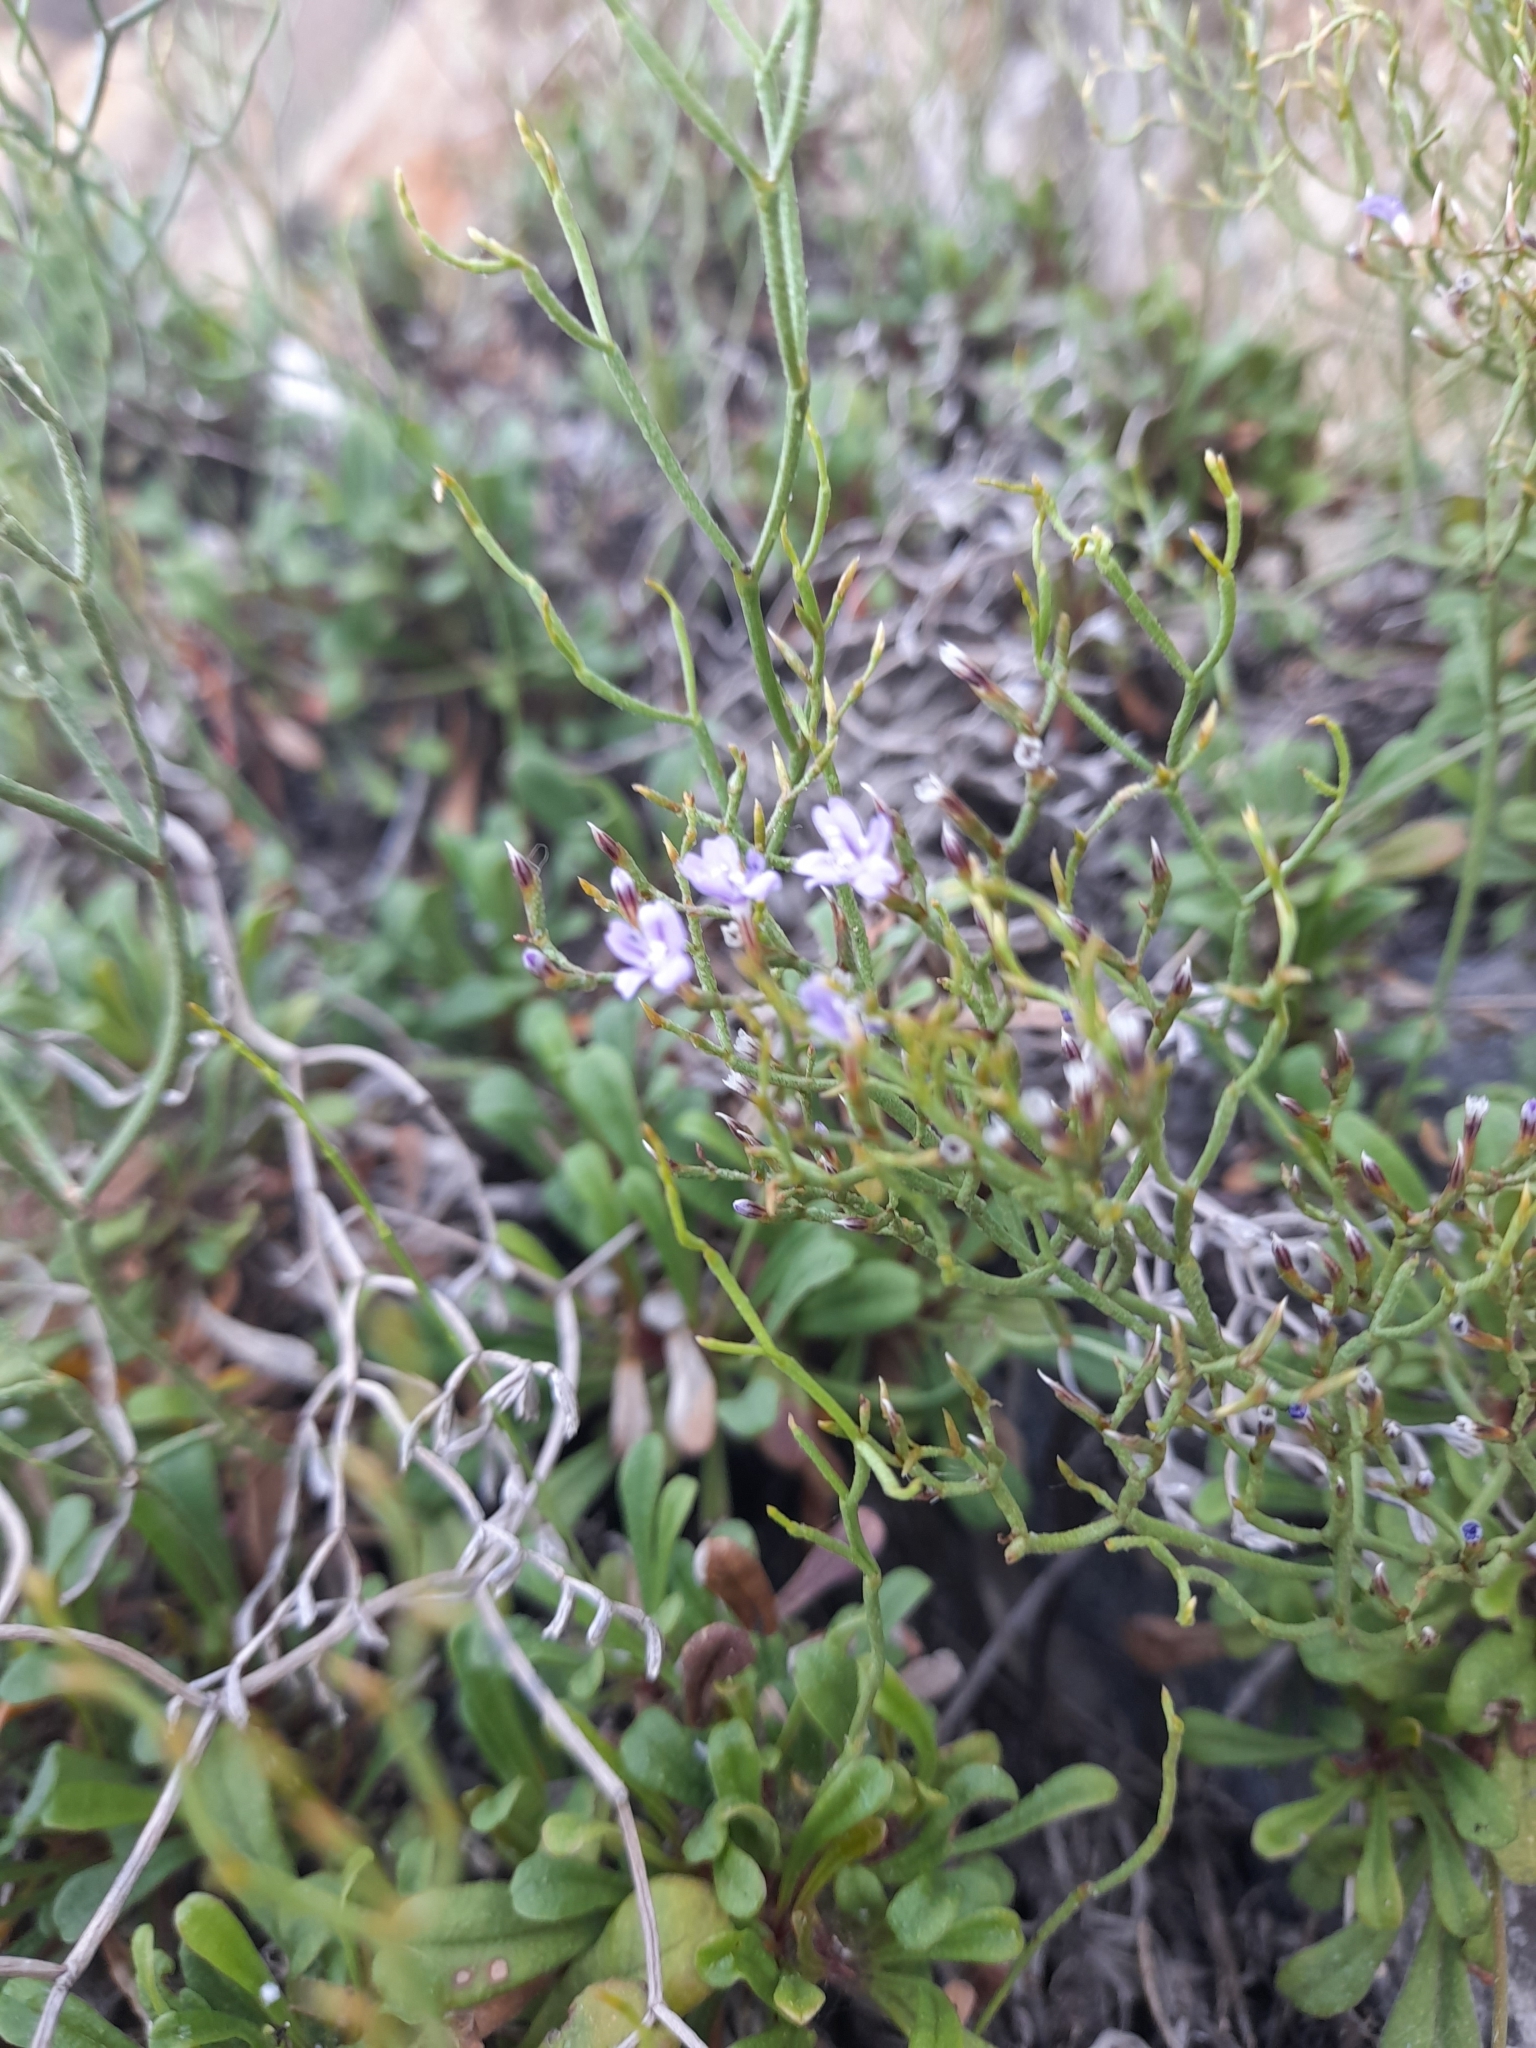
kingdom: Plantae
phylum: Tracheophyta
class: Magnoliopsida
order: Caryophyllales
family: Plumbaginaceae
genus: Limonium
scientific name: Limonium multiforme
